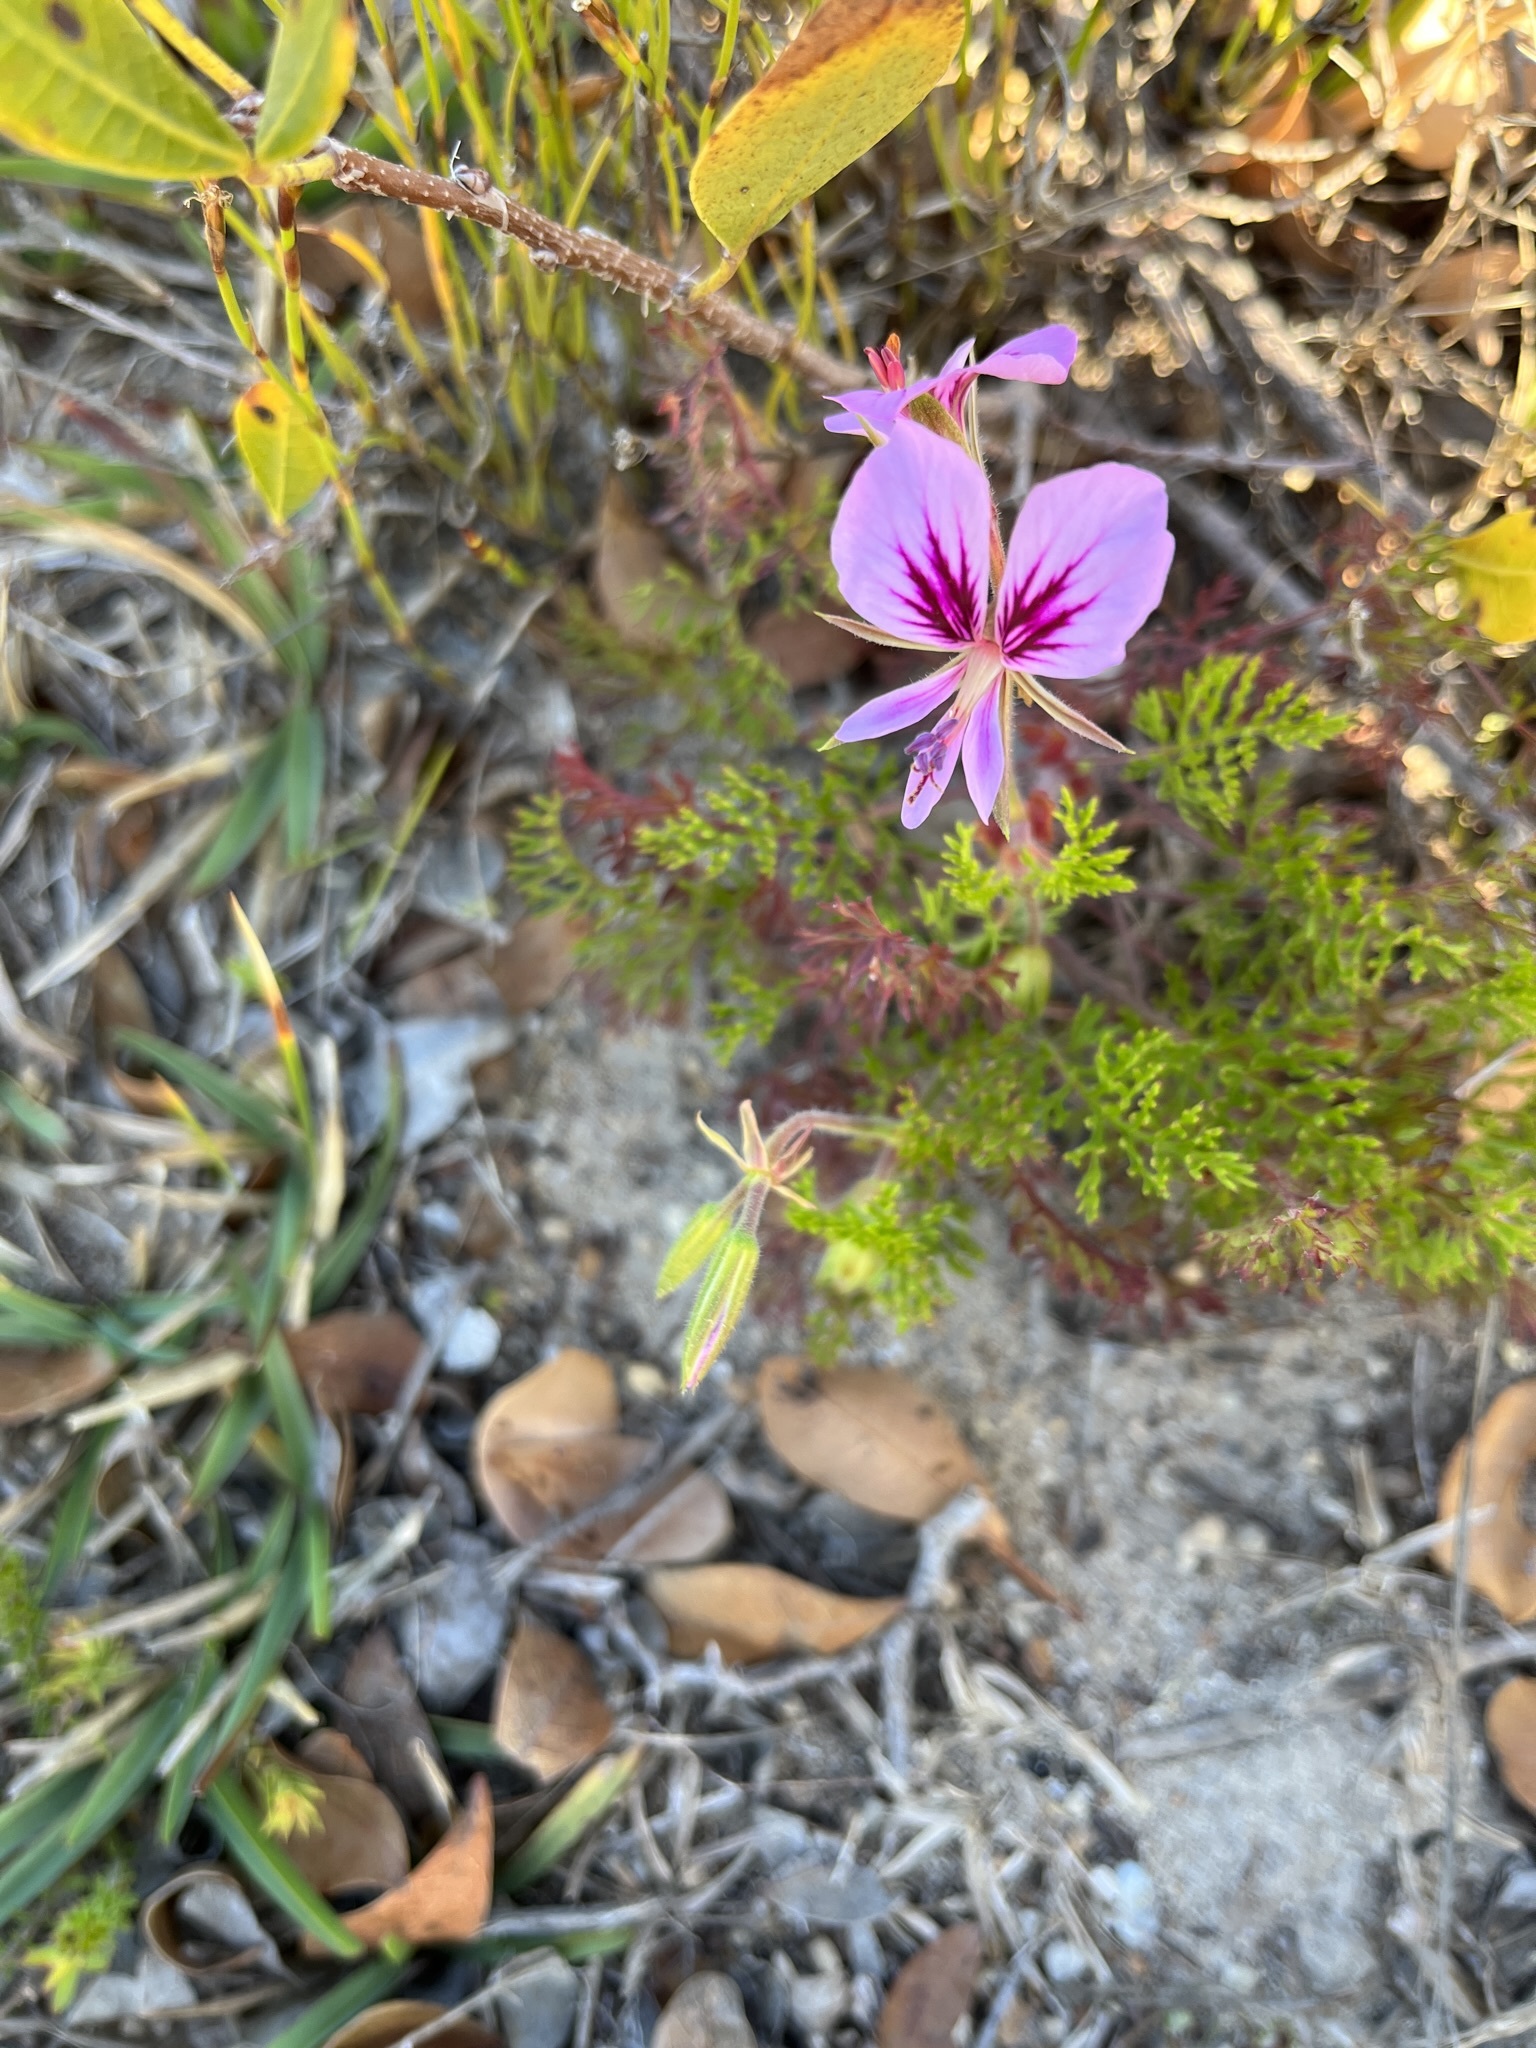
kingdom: Plantae
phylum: Tracheophyta
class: Magnoliopsida
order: Geraniales
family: Geraniaceae
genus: Pelargonium
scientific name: Pelargonium myrrhifolium
